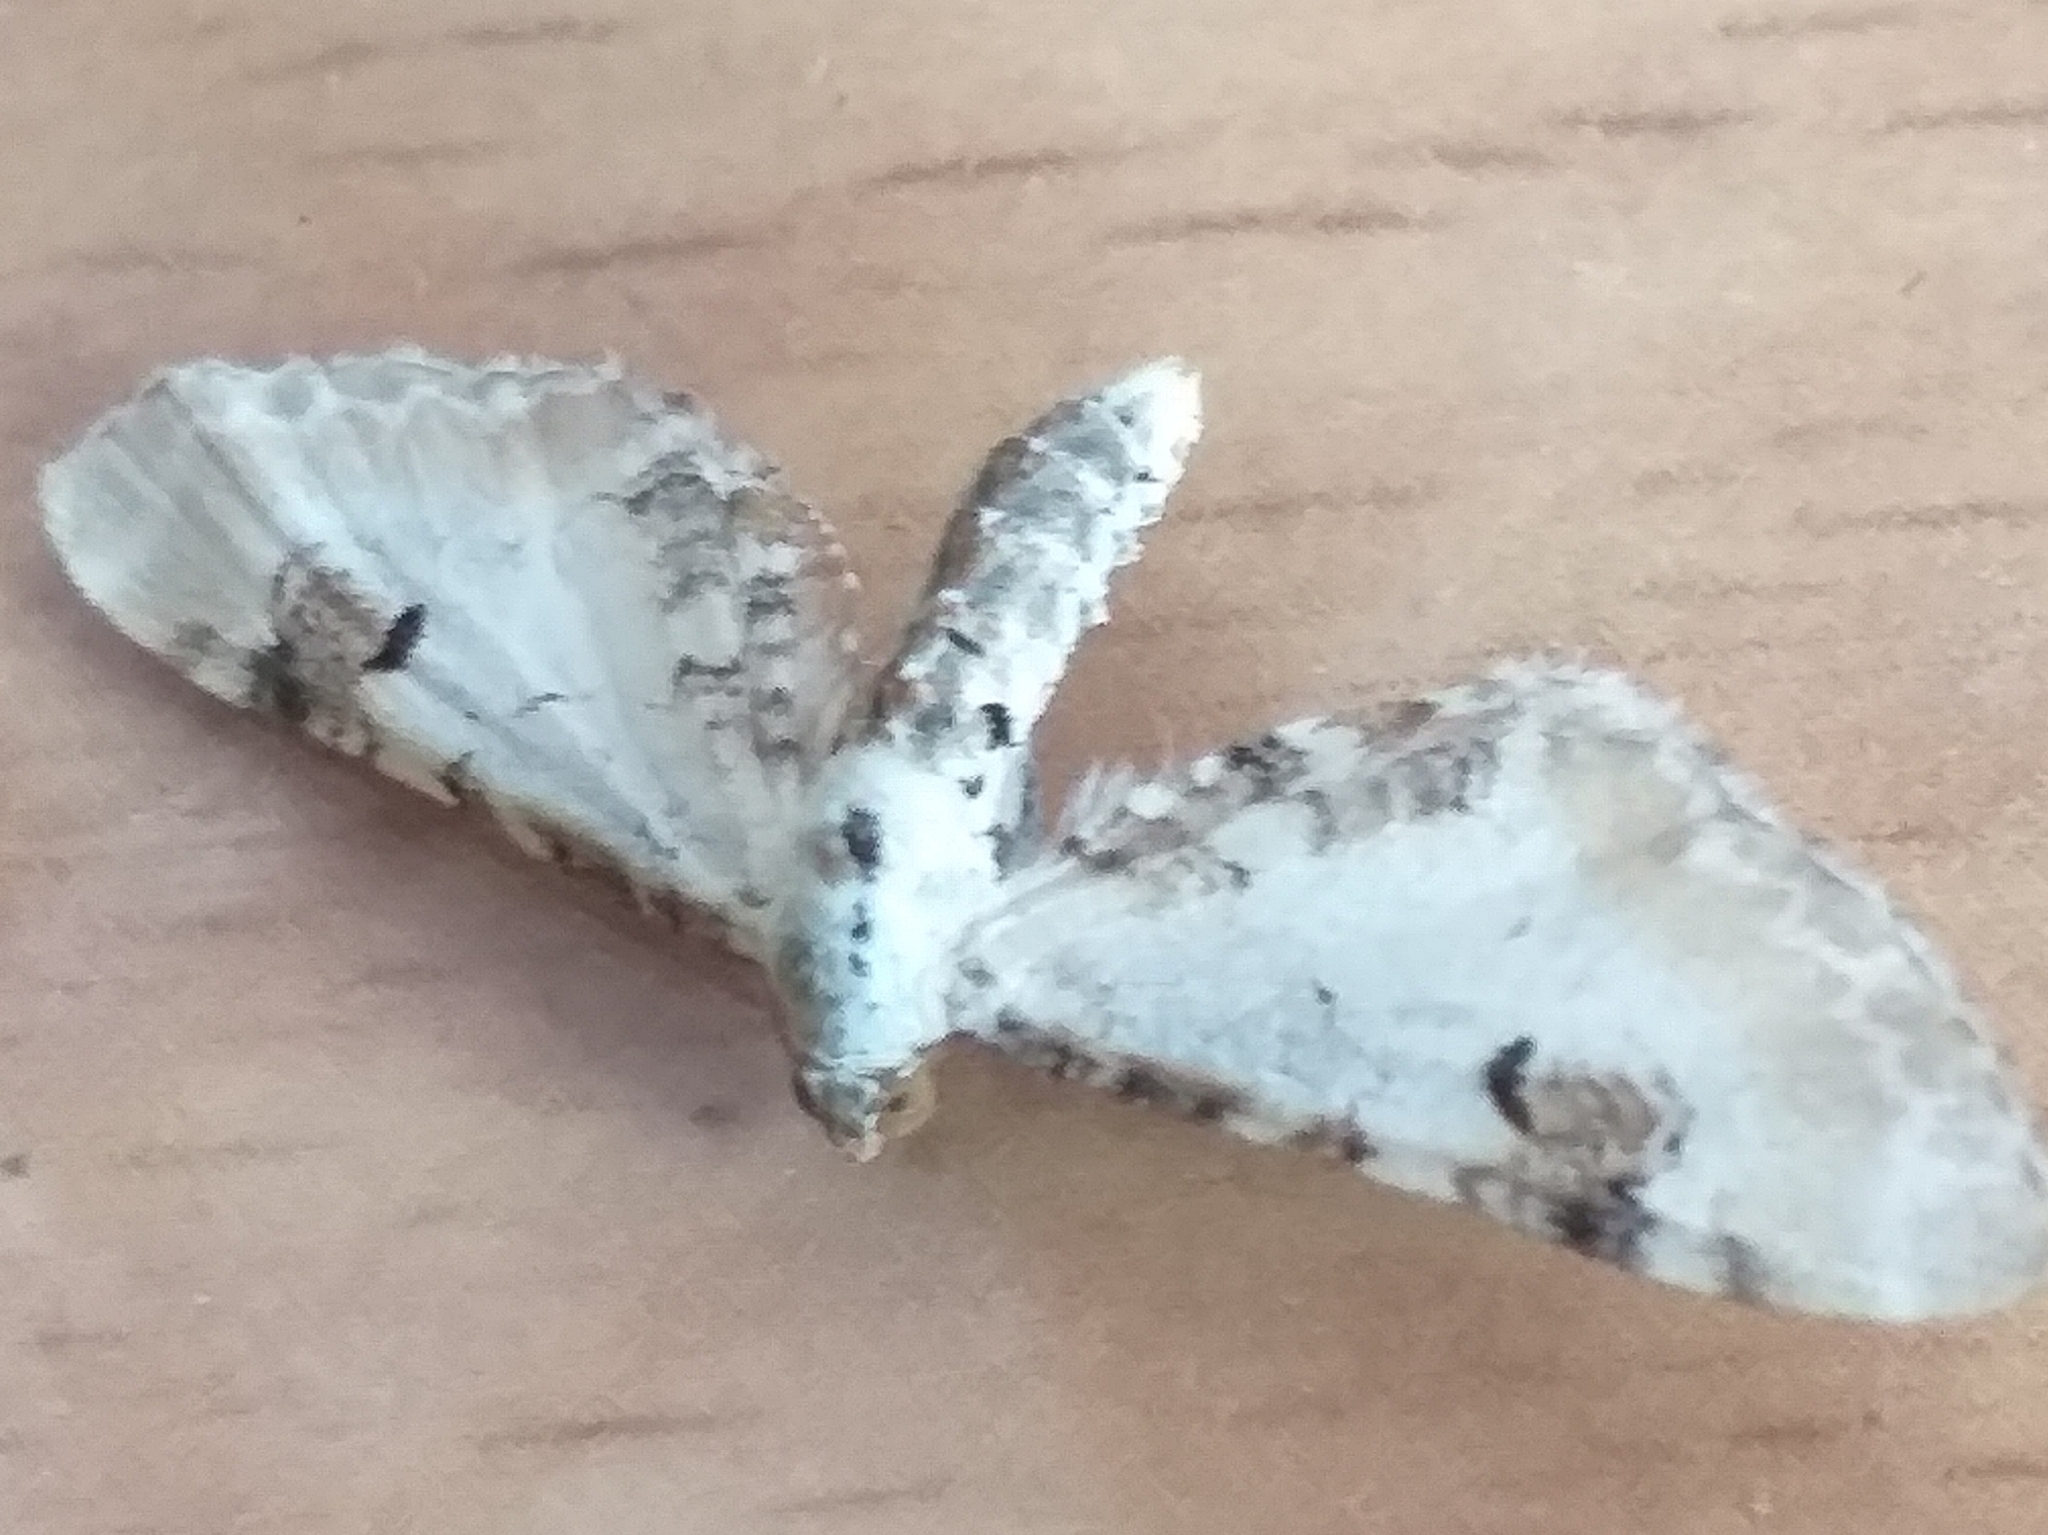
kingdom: Animalia
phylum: Arthropoda
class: Insecta
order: Lepidoptera
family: Geometridae
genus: Eupithecia
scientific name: Eupithecia centaureata
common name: Lime-speck pug
